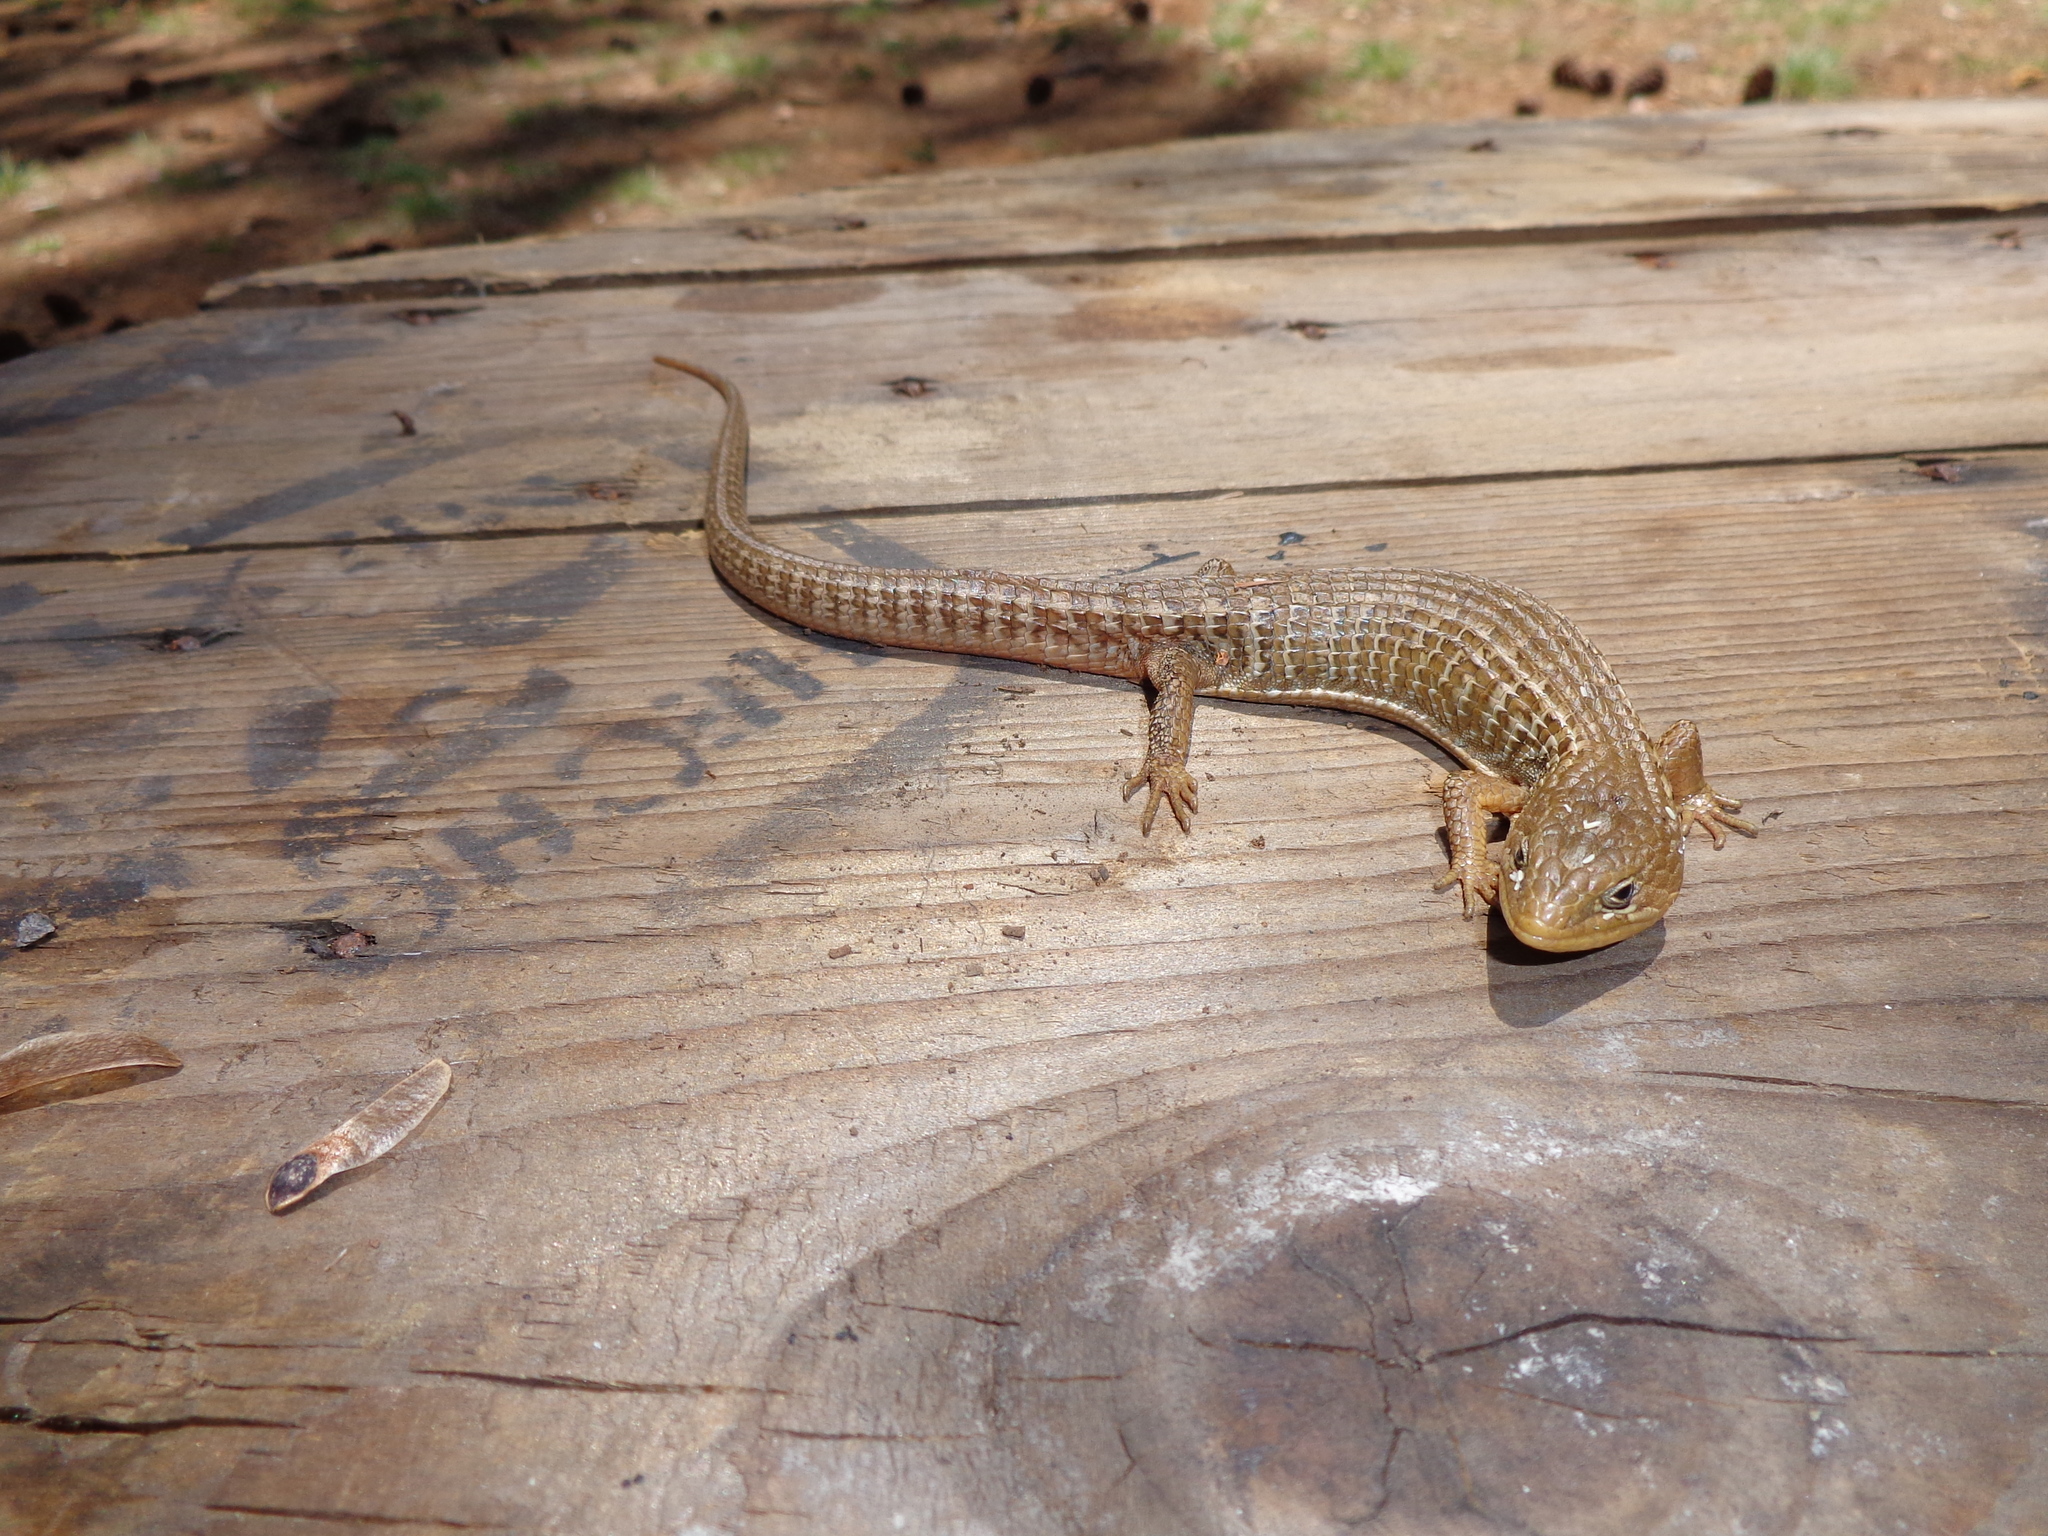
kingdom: Animalia
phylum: Chordata
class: Squamata
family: Anguidae
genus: Barisia
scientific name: Barisia imbricata
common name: Imbricate alligator lizard
